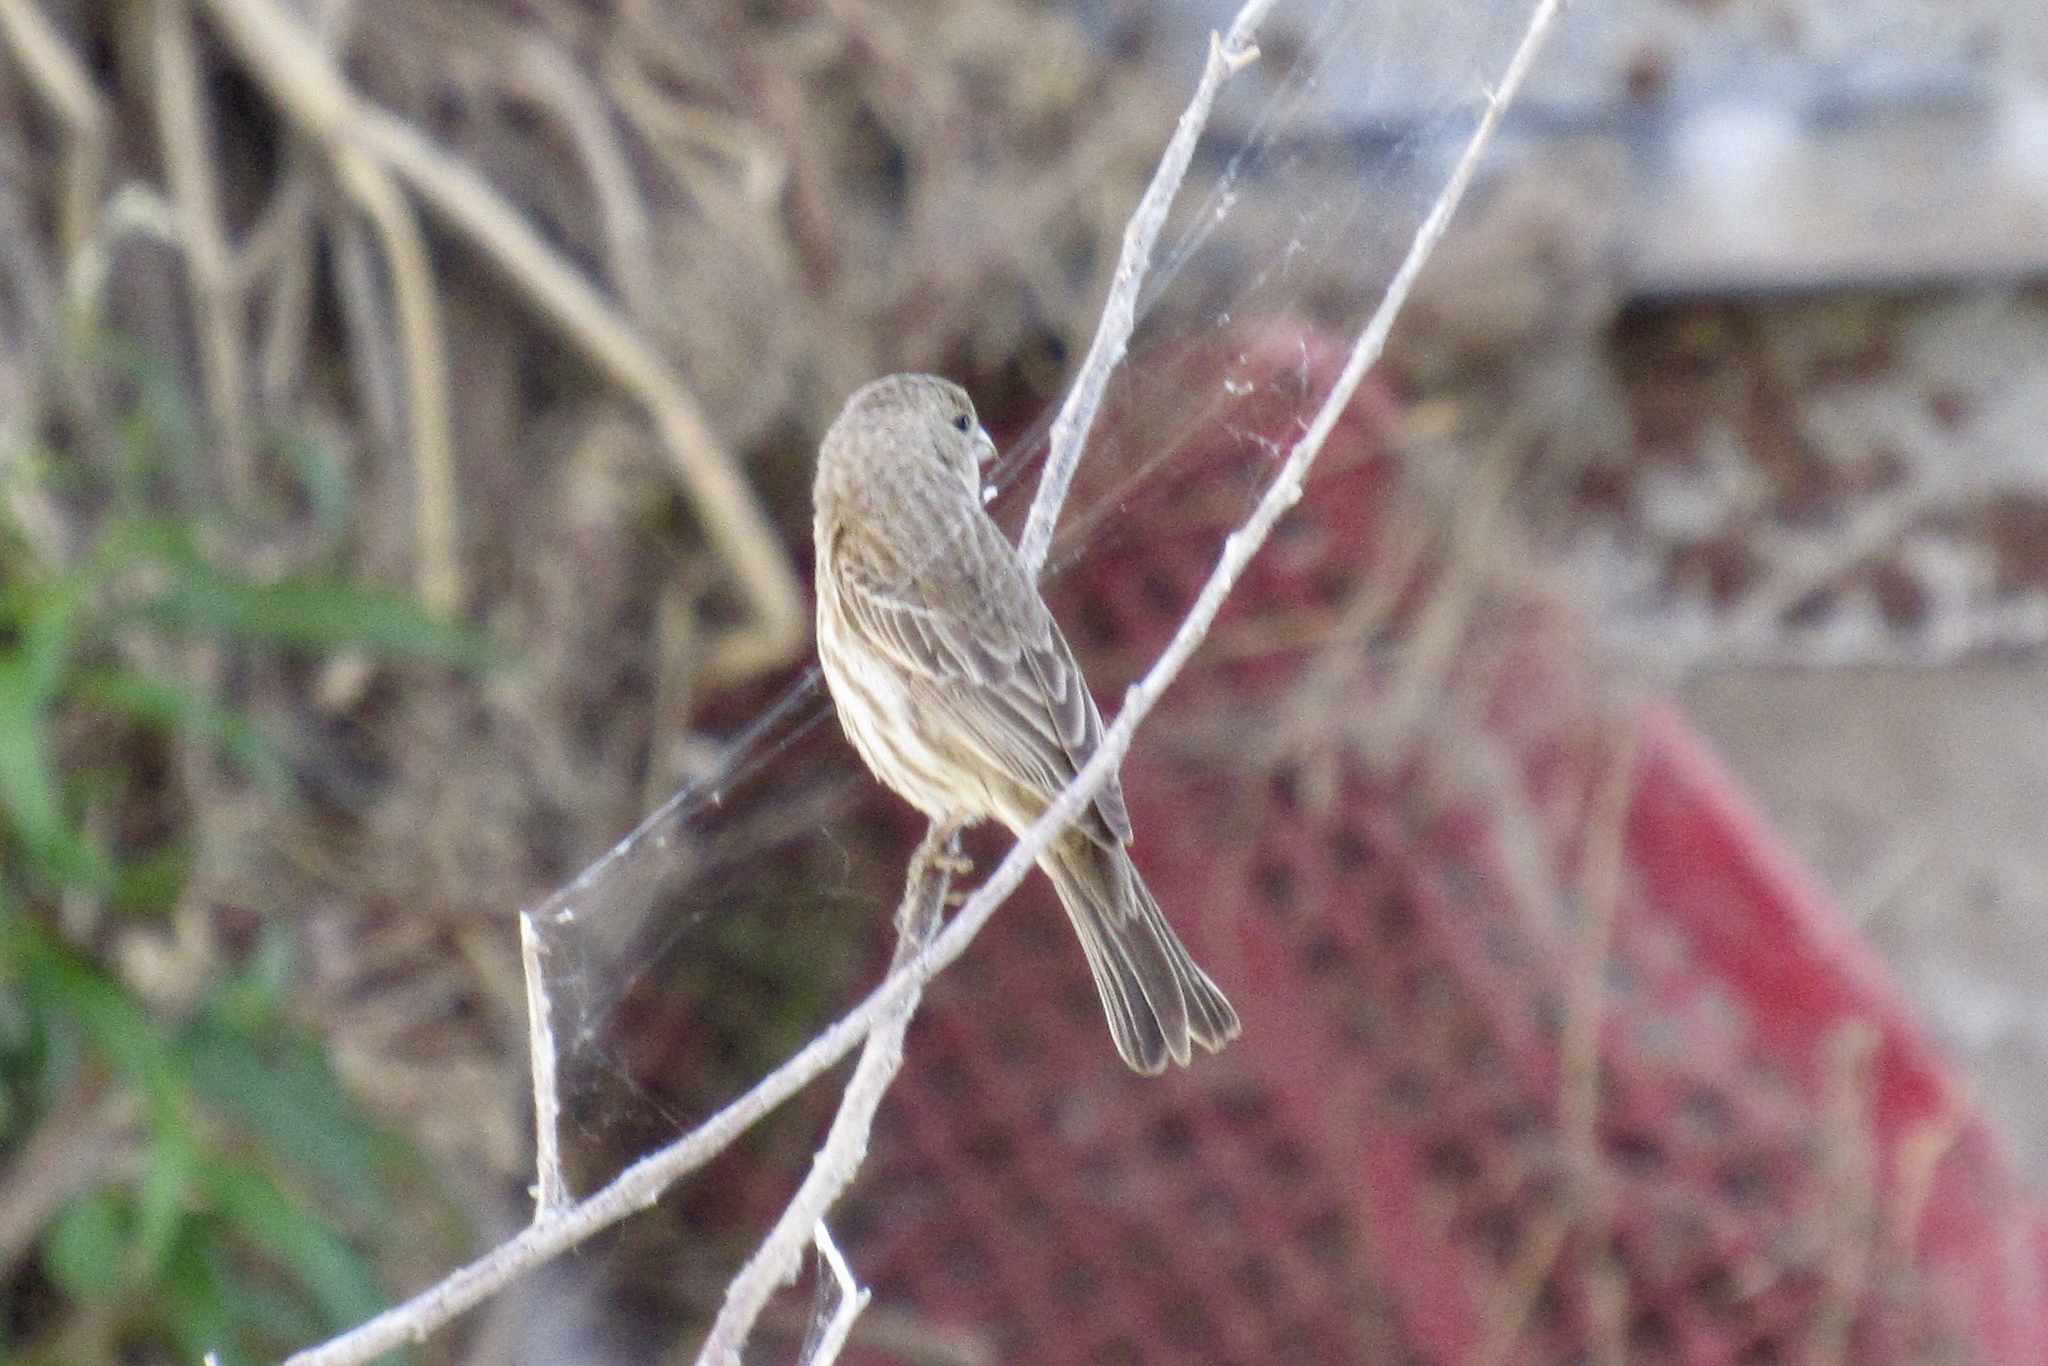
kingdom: Animalia
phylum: Chordata
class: Aves
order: Passeriformes
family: Fringillidae
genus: Haemorhous
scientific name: Haemorhous mexicanus
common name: House finch
